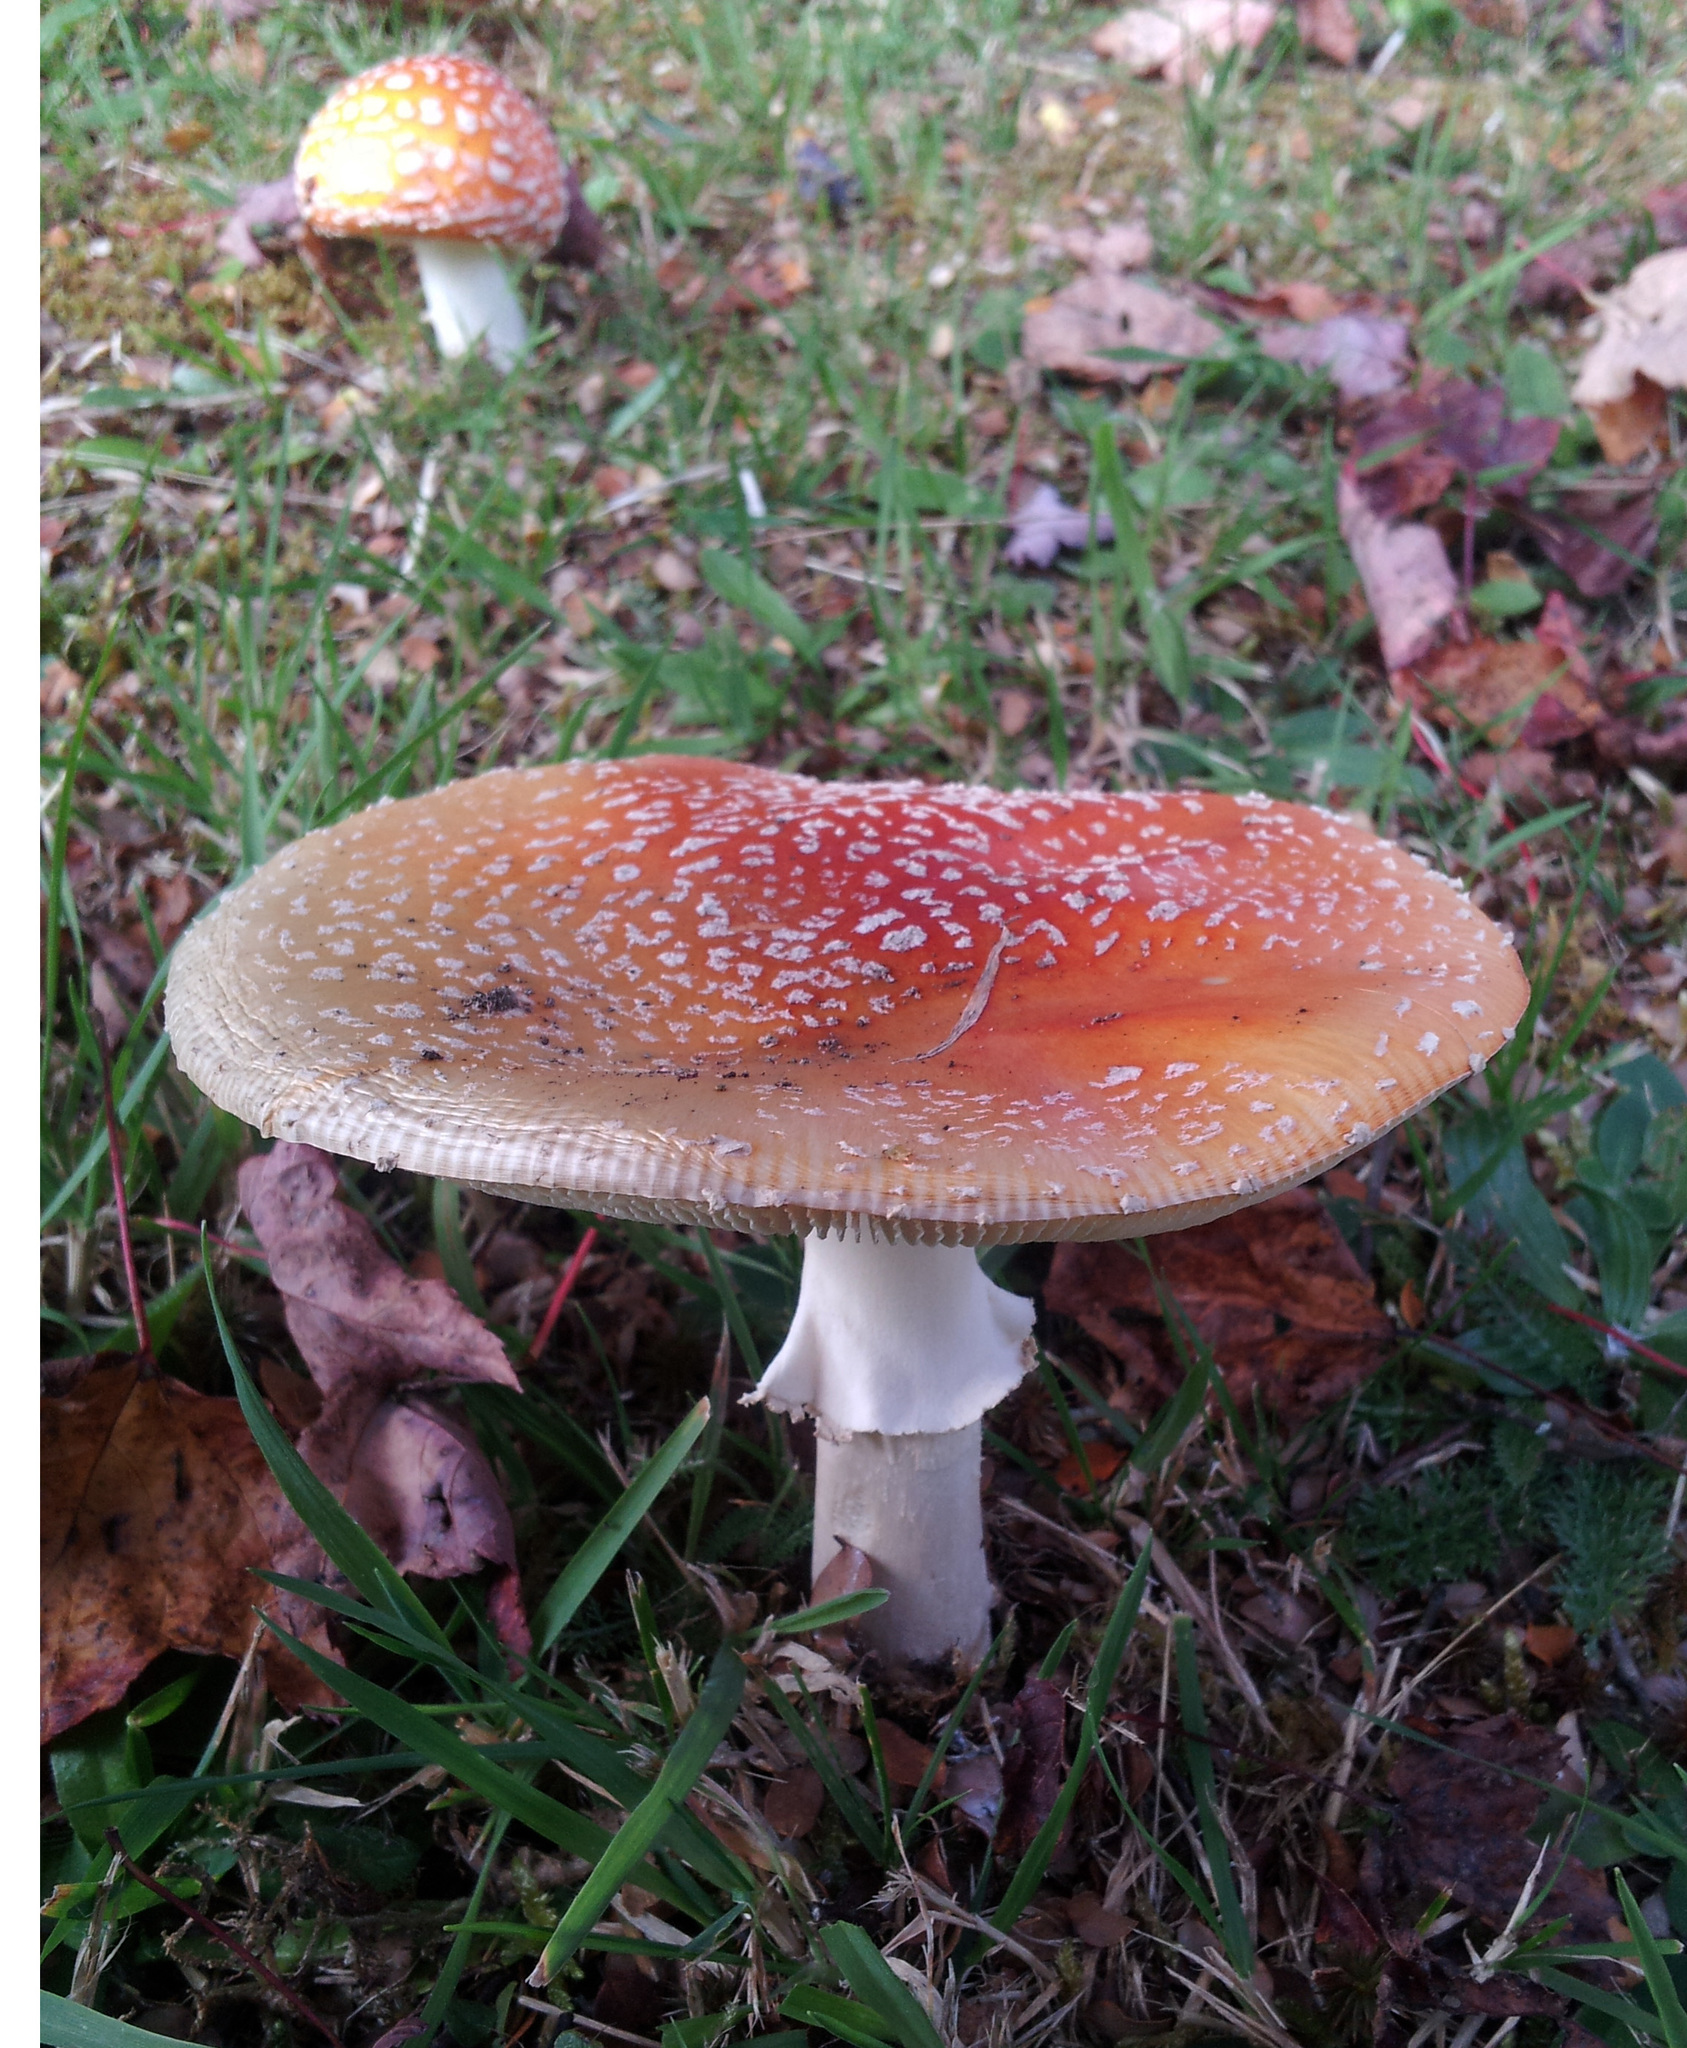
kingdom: Fungi
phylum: Basidiomycota
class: Agaricomycetes
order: Agaricales
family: Amanitaceae
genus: Amanita
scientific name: Amanita muscaria
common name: Fly agaric
